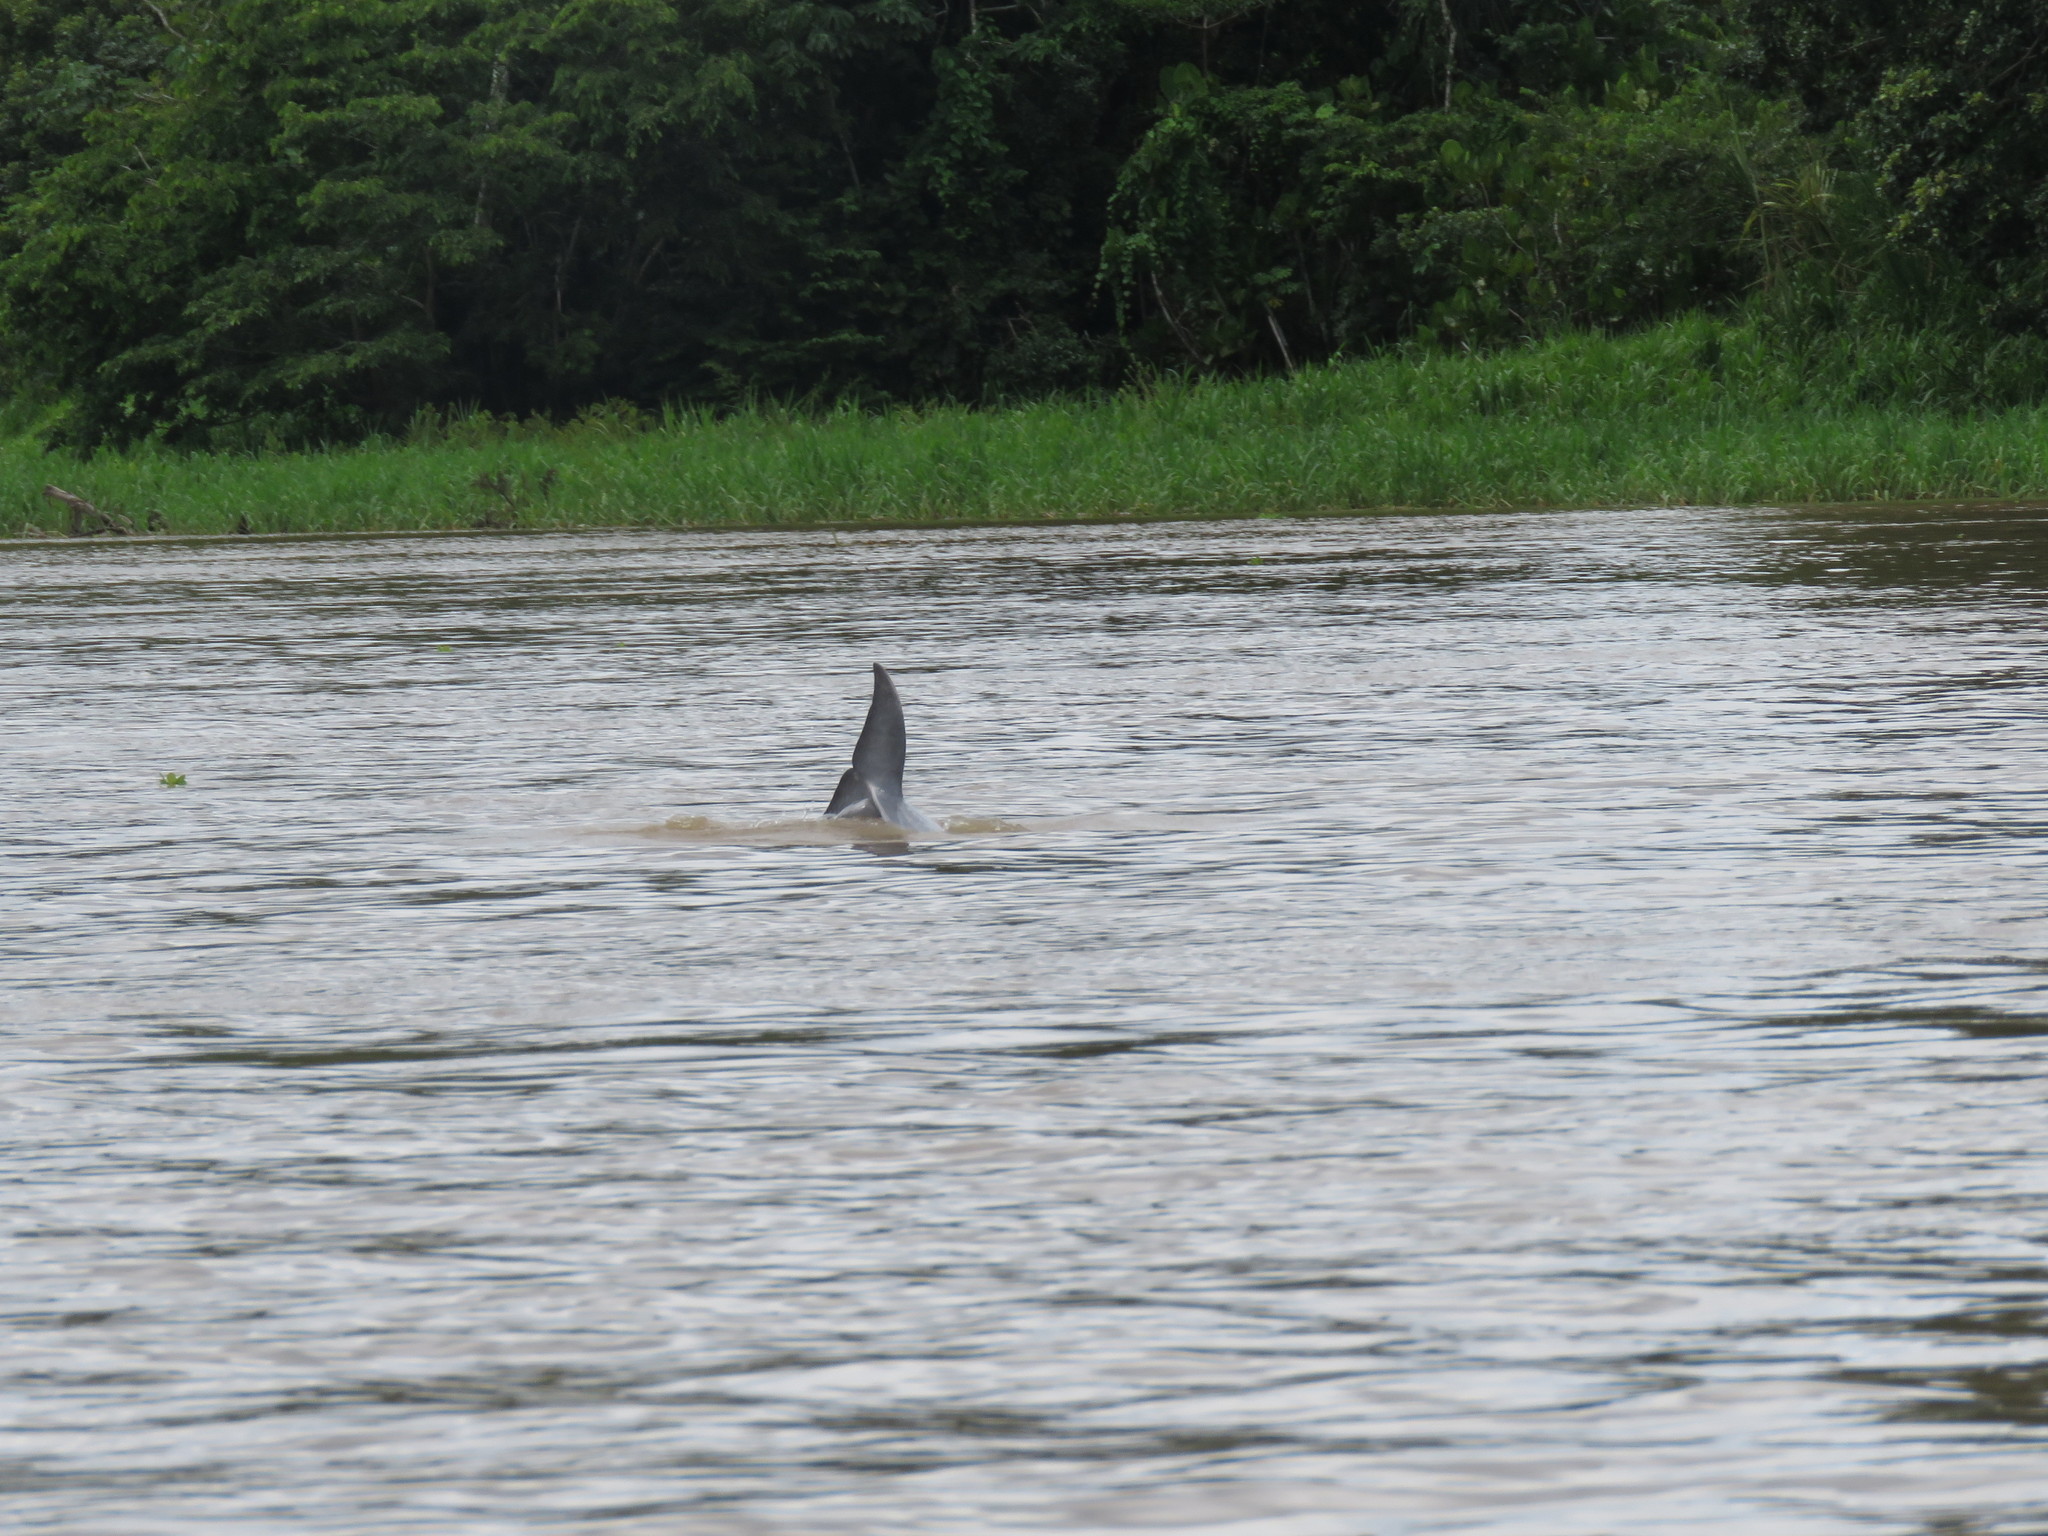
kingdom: Animalia
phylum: Chordata
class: Mammalia
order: Cetacea
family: Delphinidae
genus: Sotalia
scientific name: Sotalia fluviatilis
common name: Tucuxi
